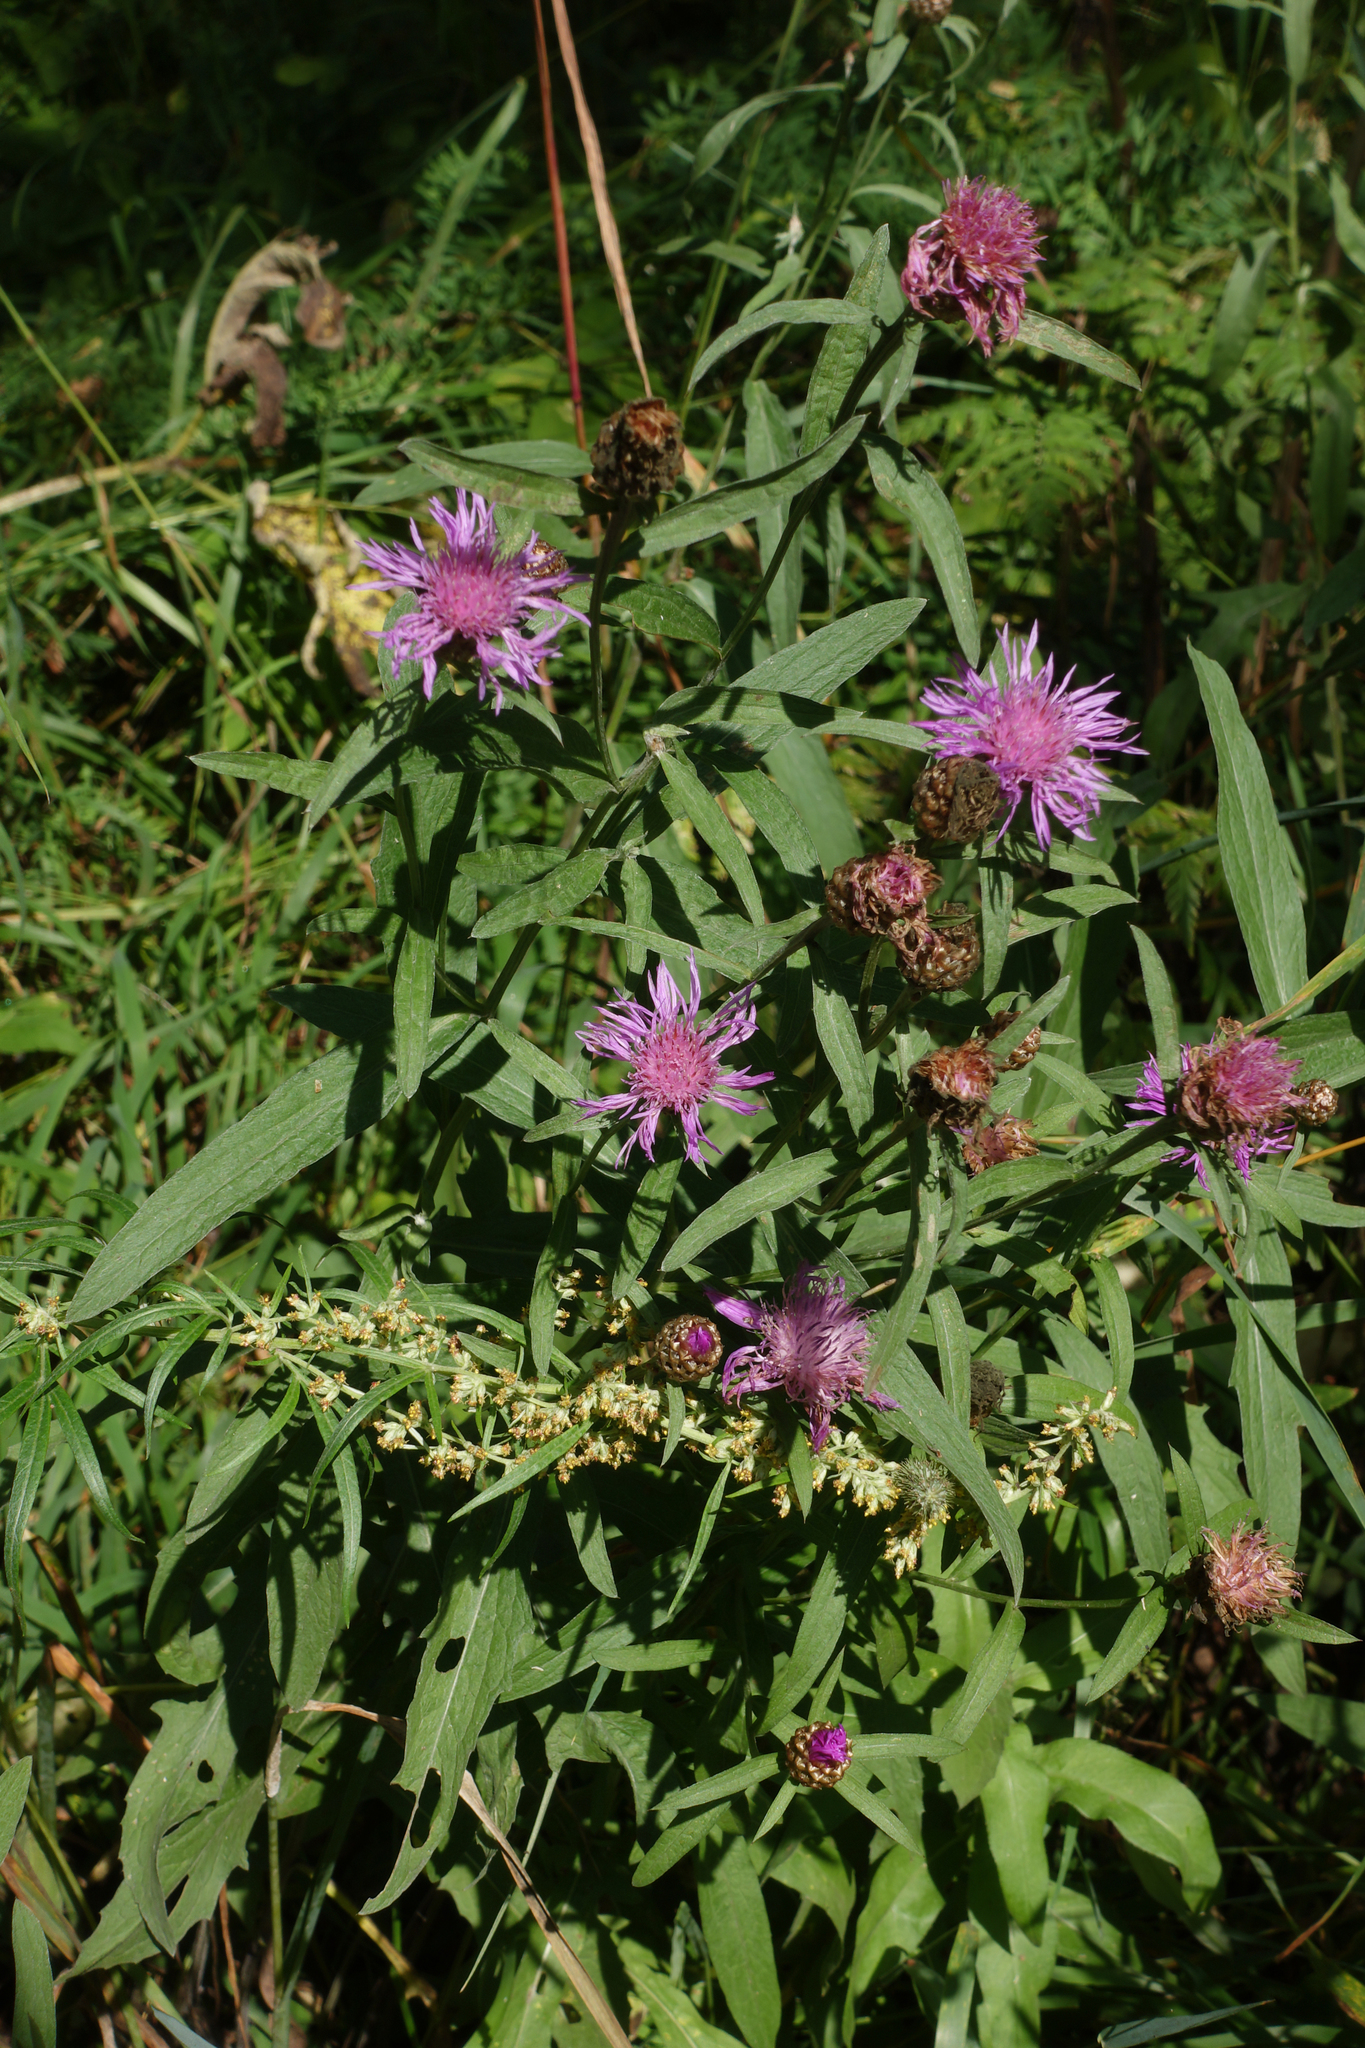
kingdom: Plantae
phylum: Tracheophyta
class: Magnoliopsida
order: Asterales
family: Asteraceae
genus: Centaurea
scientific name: Centaurea jacea
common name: Brown knapweed
